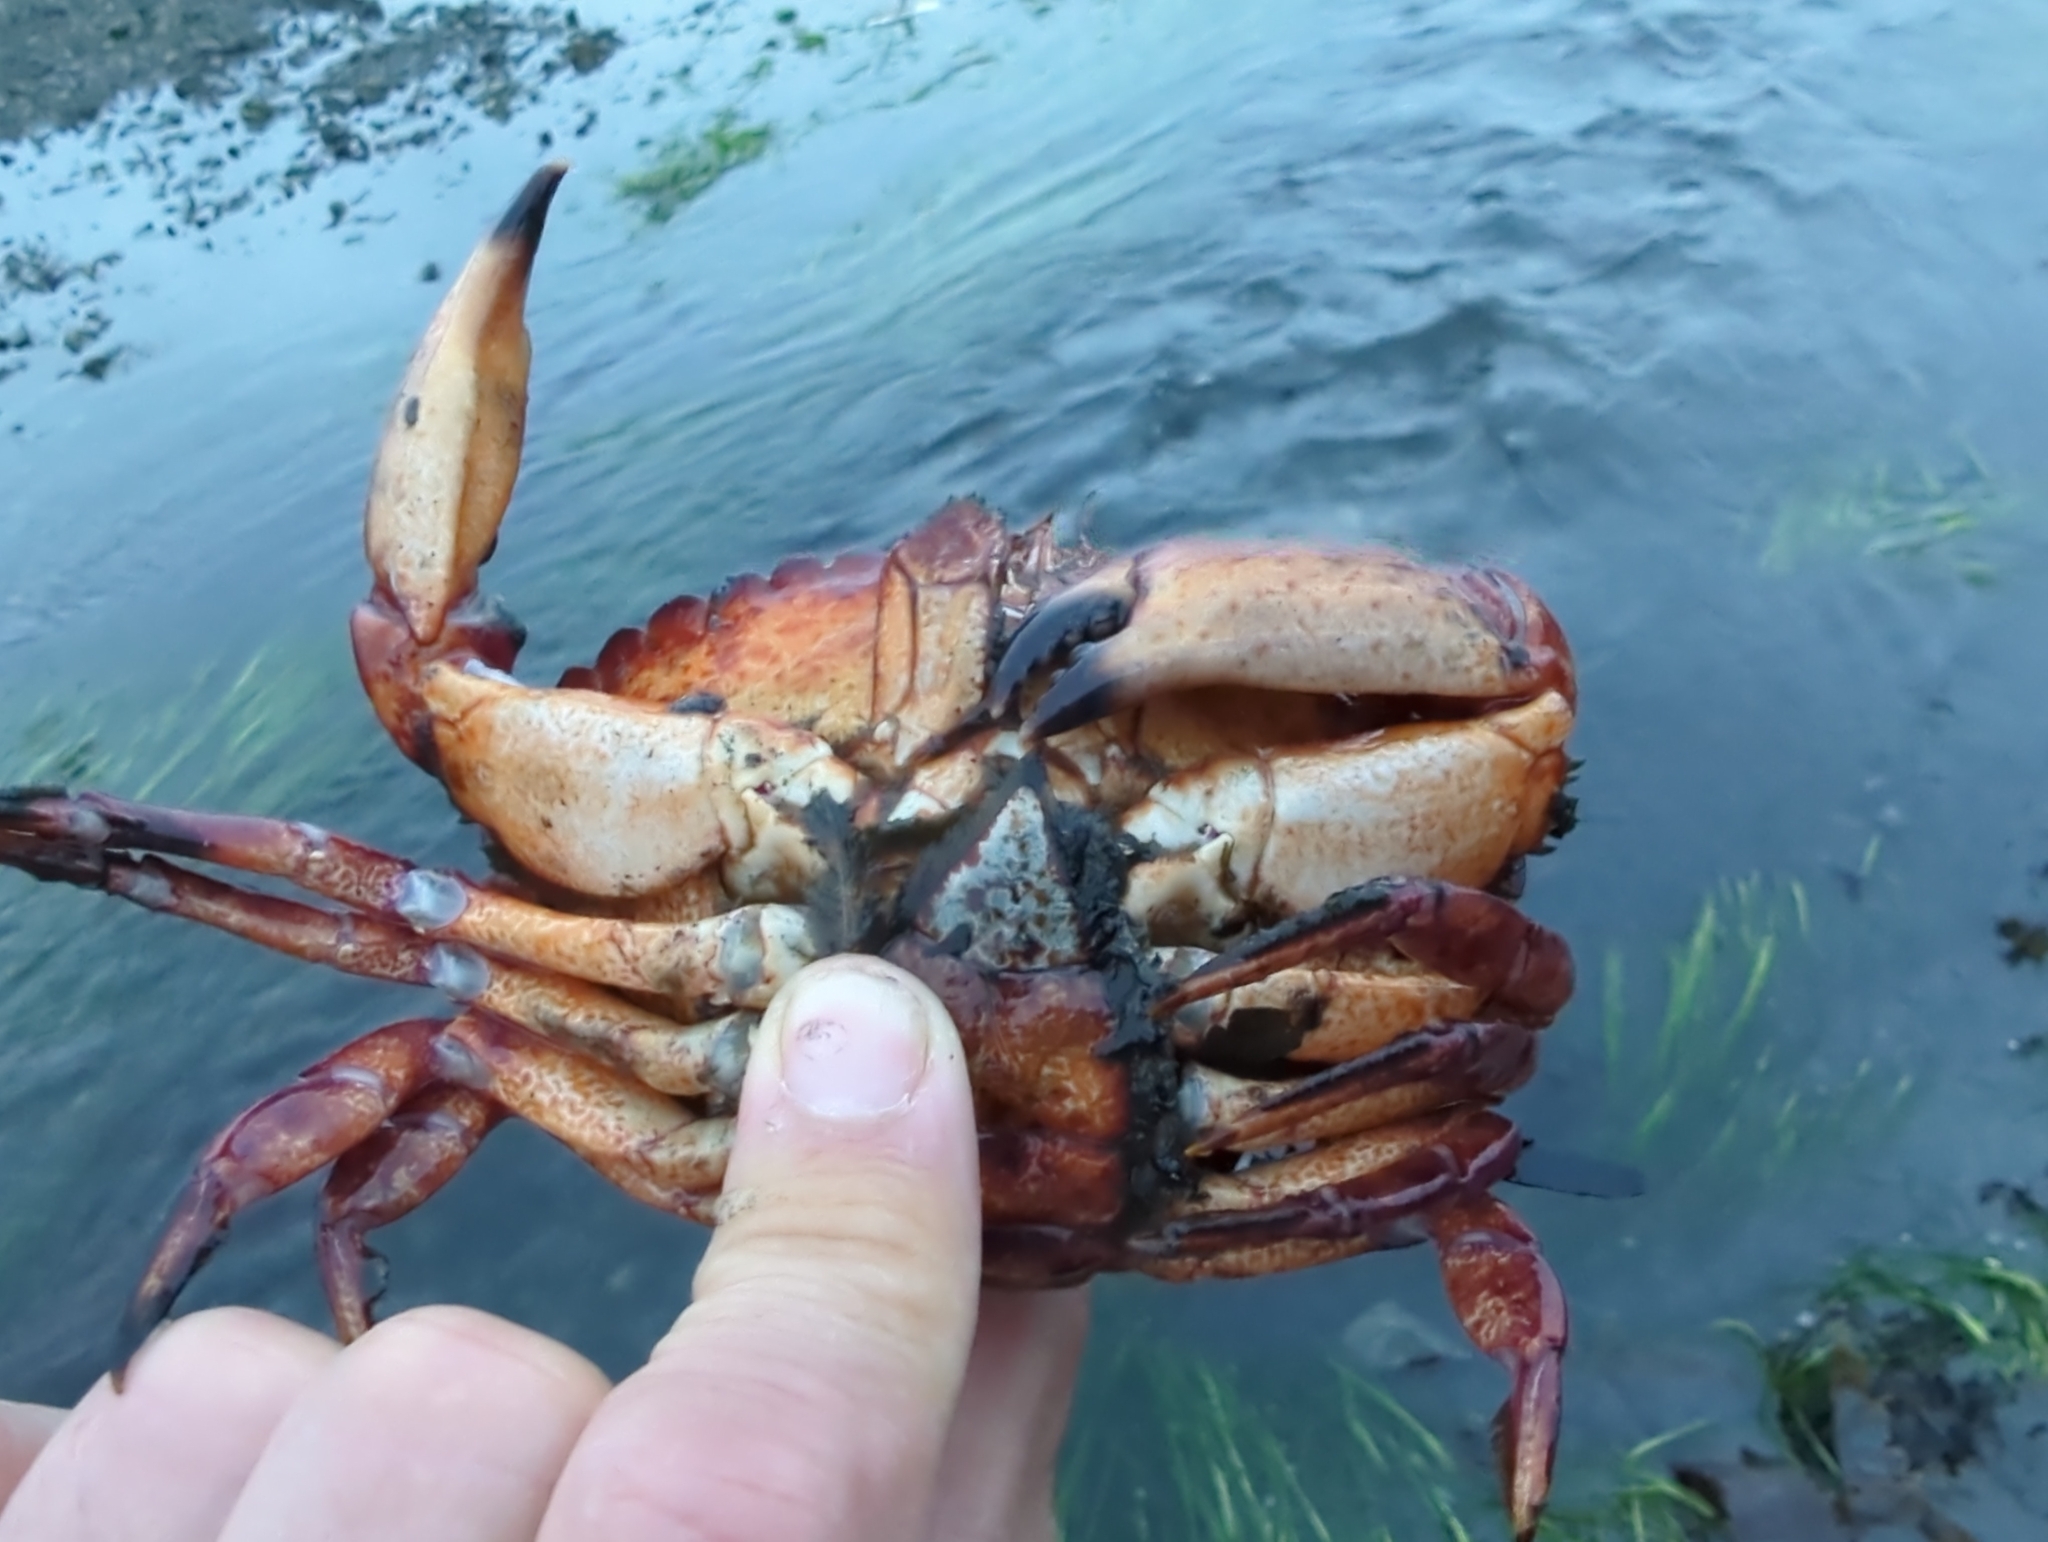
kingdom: Animalia
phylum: Arthropoda
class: Malacostraca
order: Decapoda
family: Cancridae
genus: Cancer
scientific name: Cancer productus
